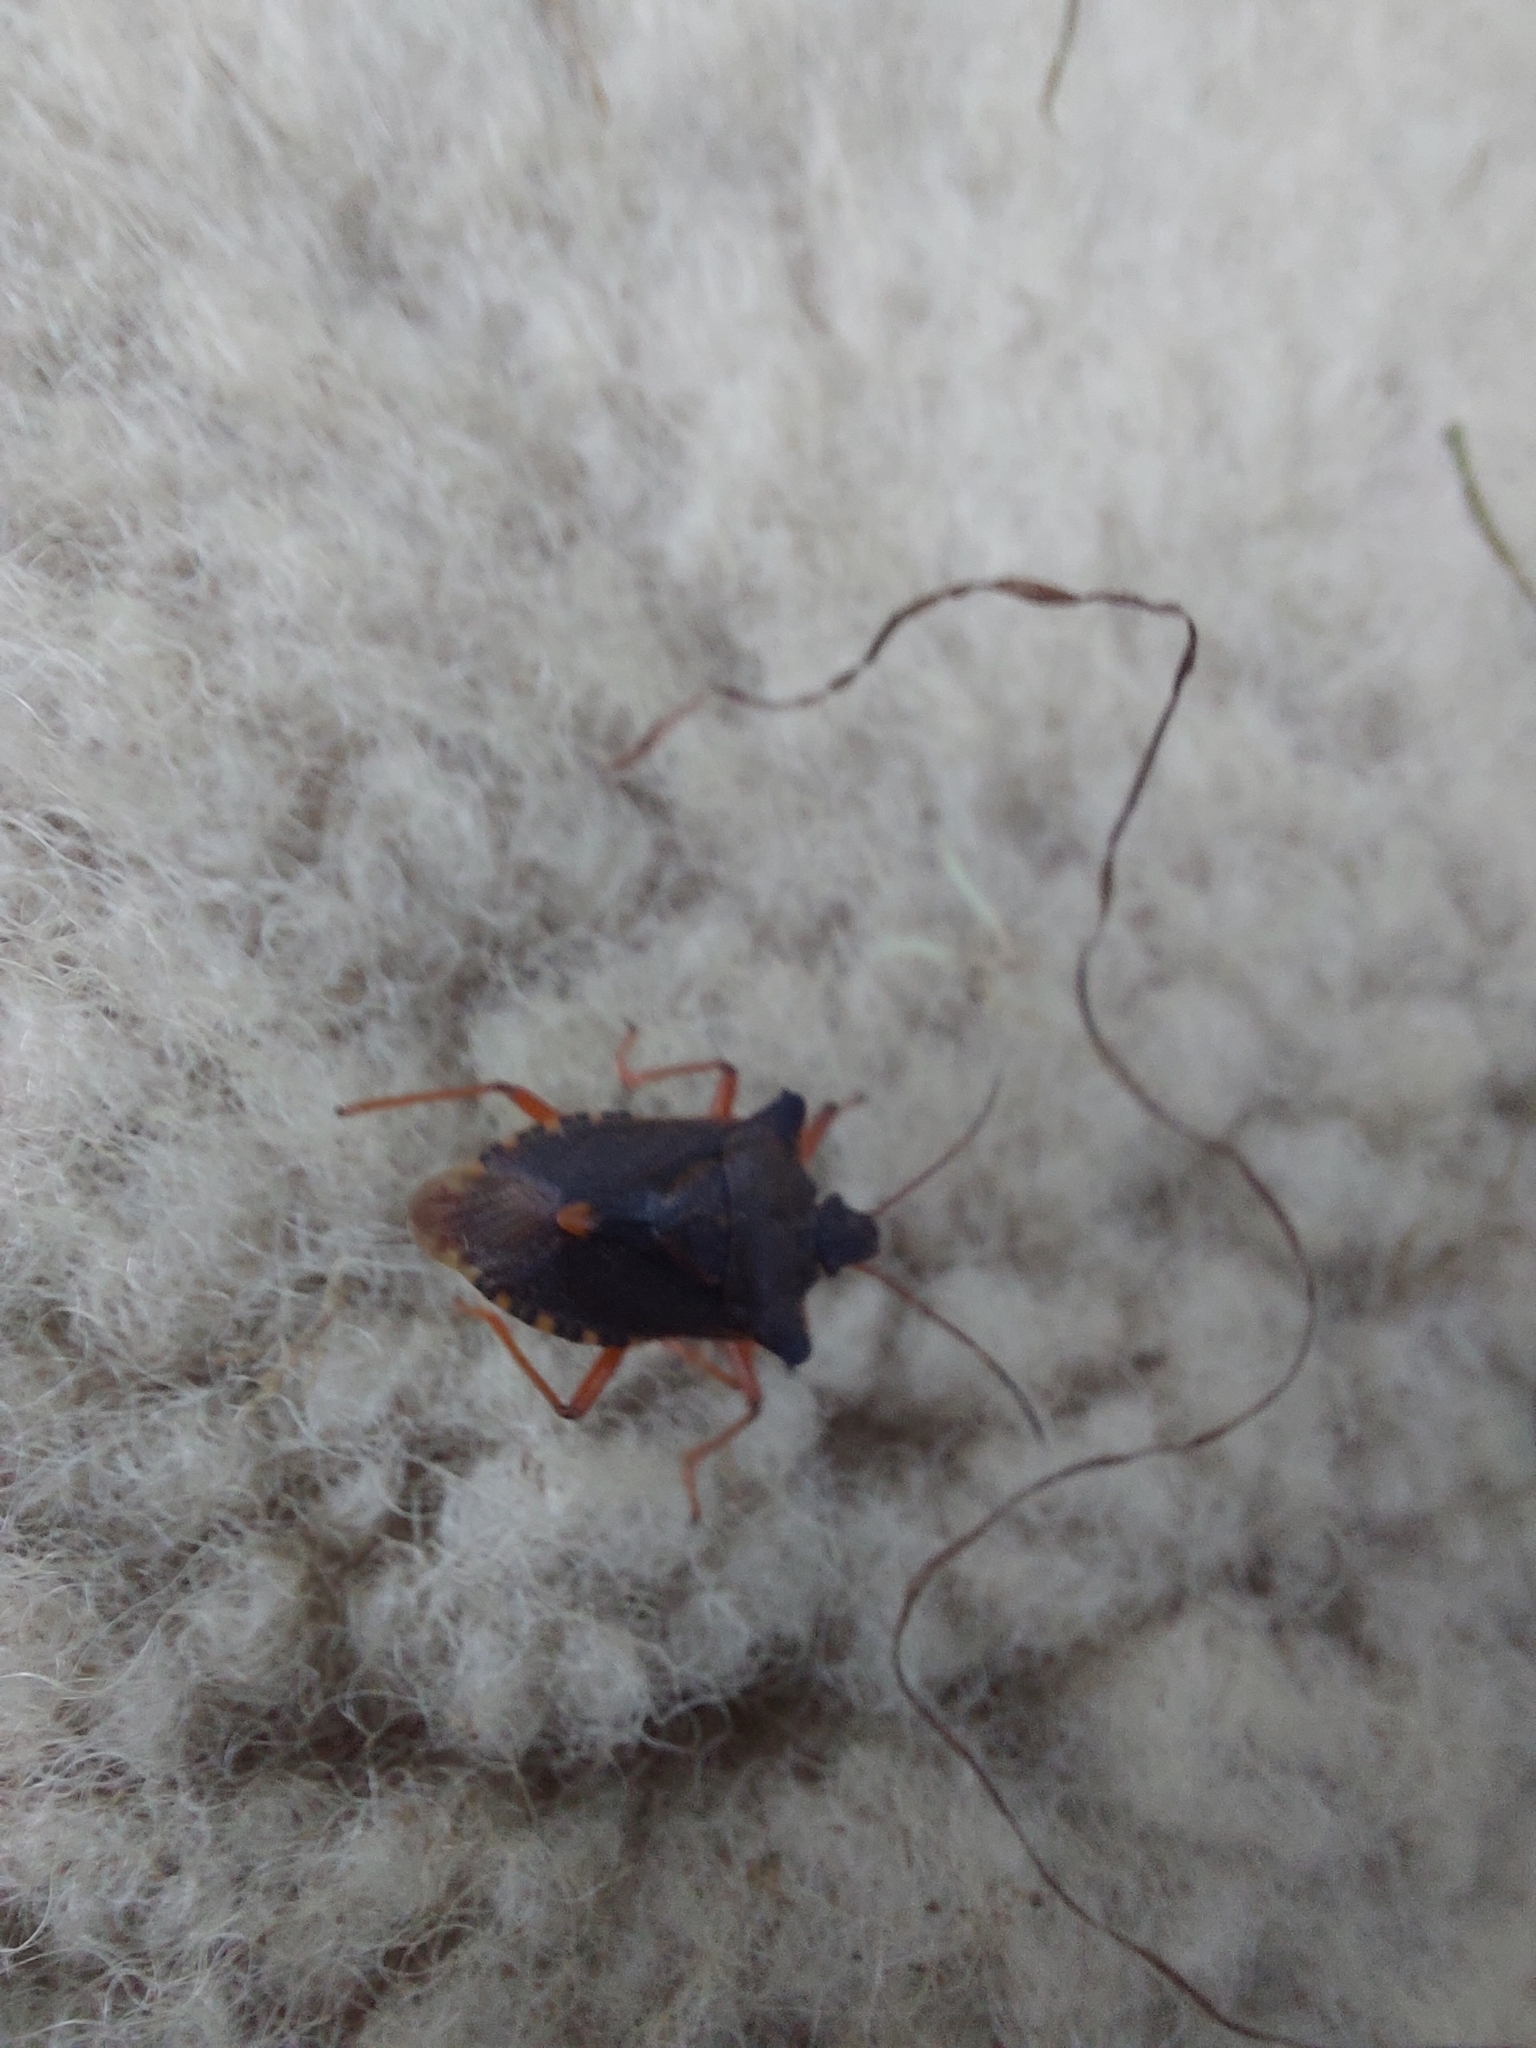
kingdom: Animalia
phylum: Arthropoda
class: Insecta
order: Hemiptera
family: Pentatomidae
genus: Pentatoma
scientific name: Pentatoma rufipes
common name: Forest bug
